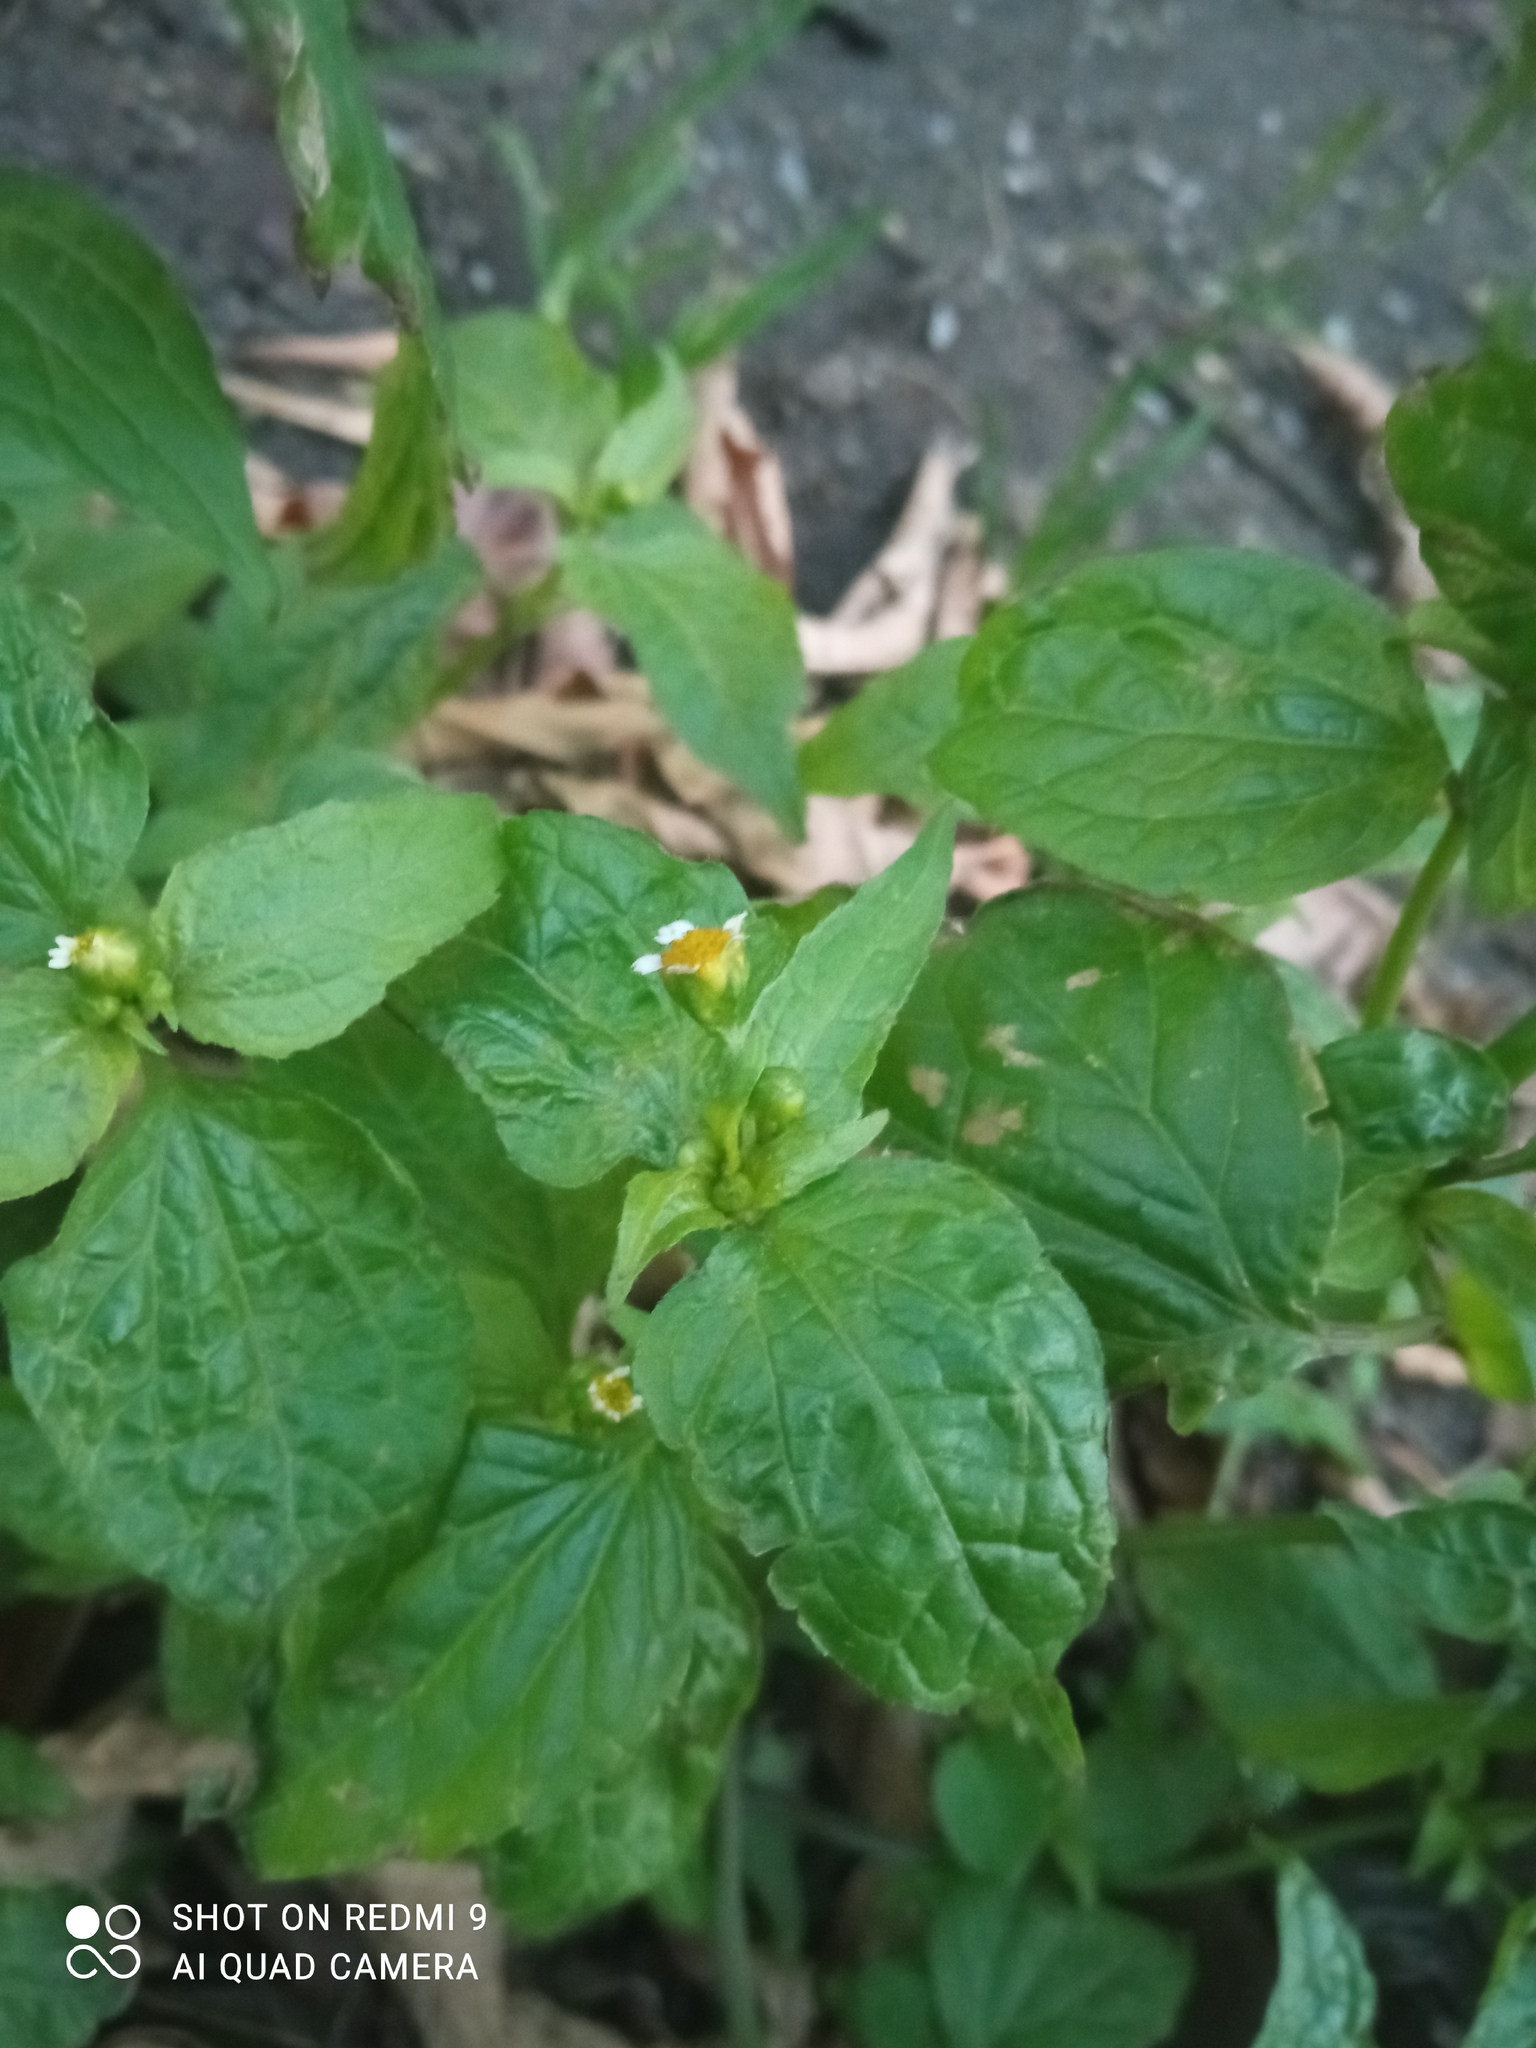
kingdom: Plantae
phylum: Tracheophyta
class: Magnoliopsida
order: Asterales
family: Asteraceae
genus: Galinsoga
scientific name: Galinsoga parviflora
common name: Gallant soldier
